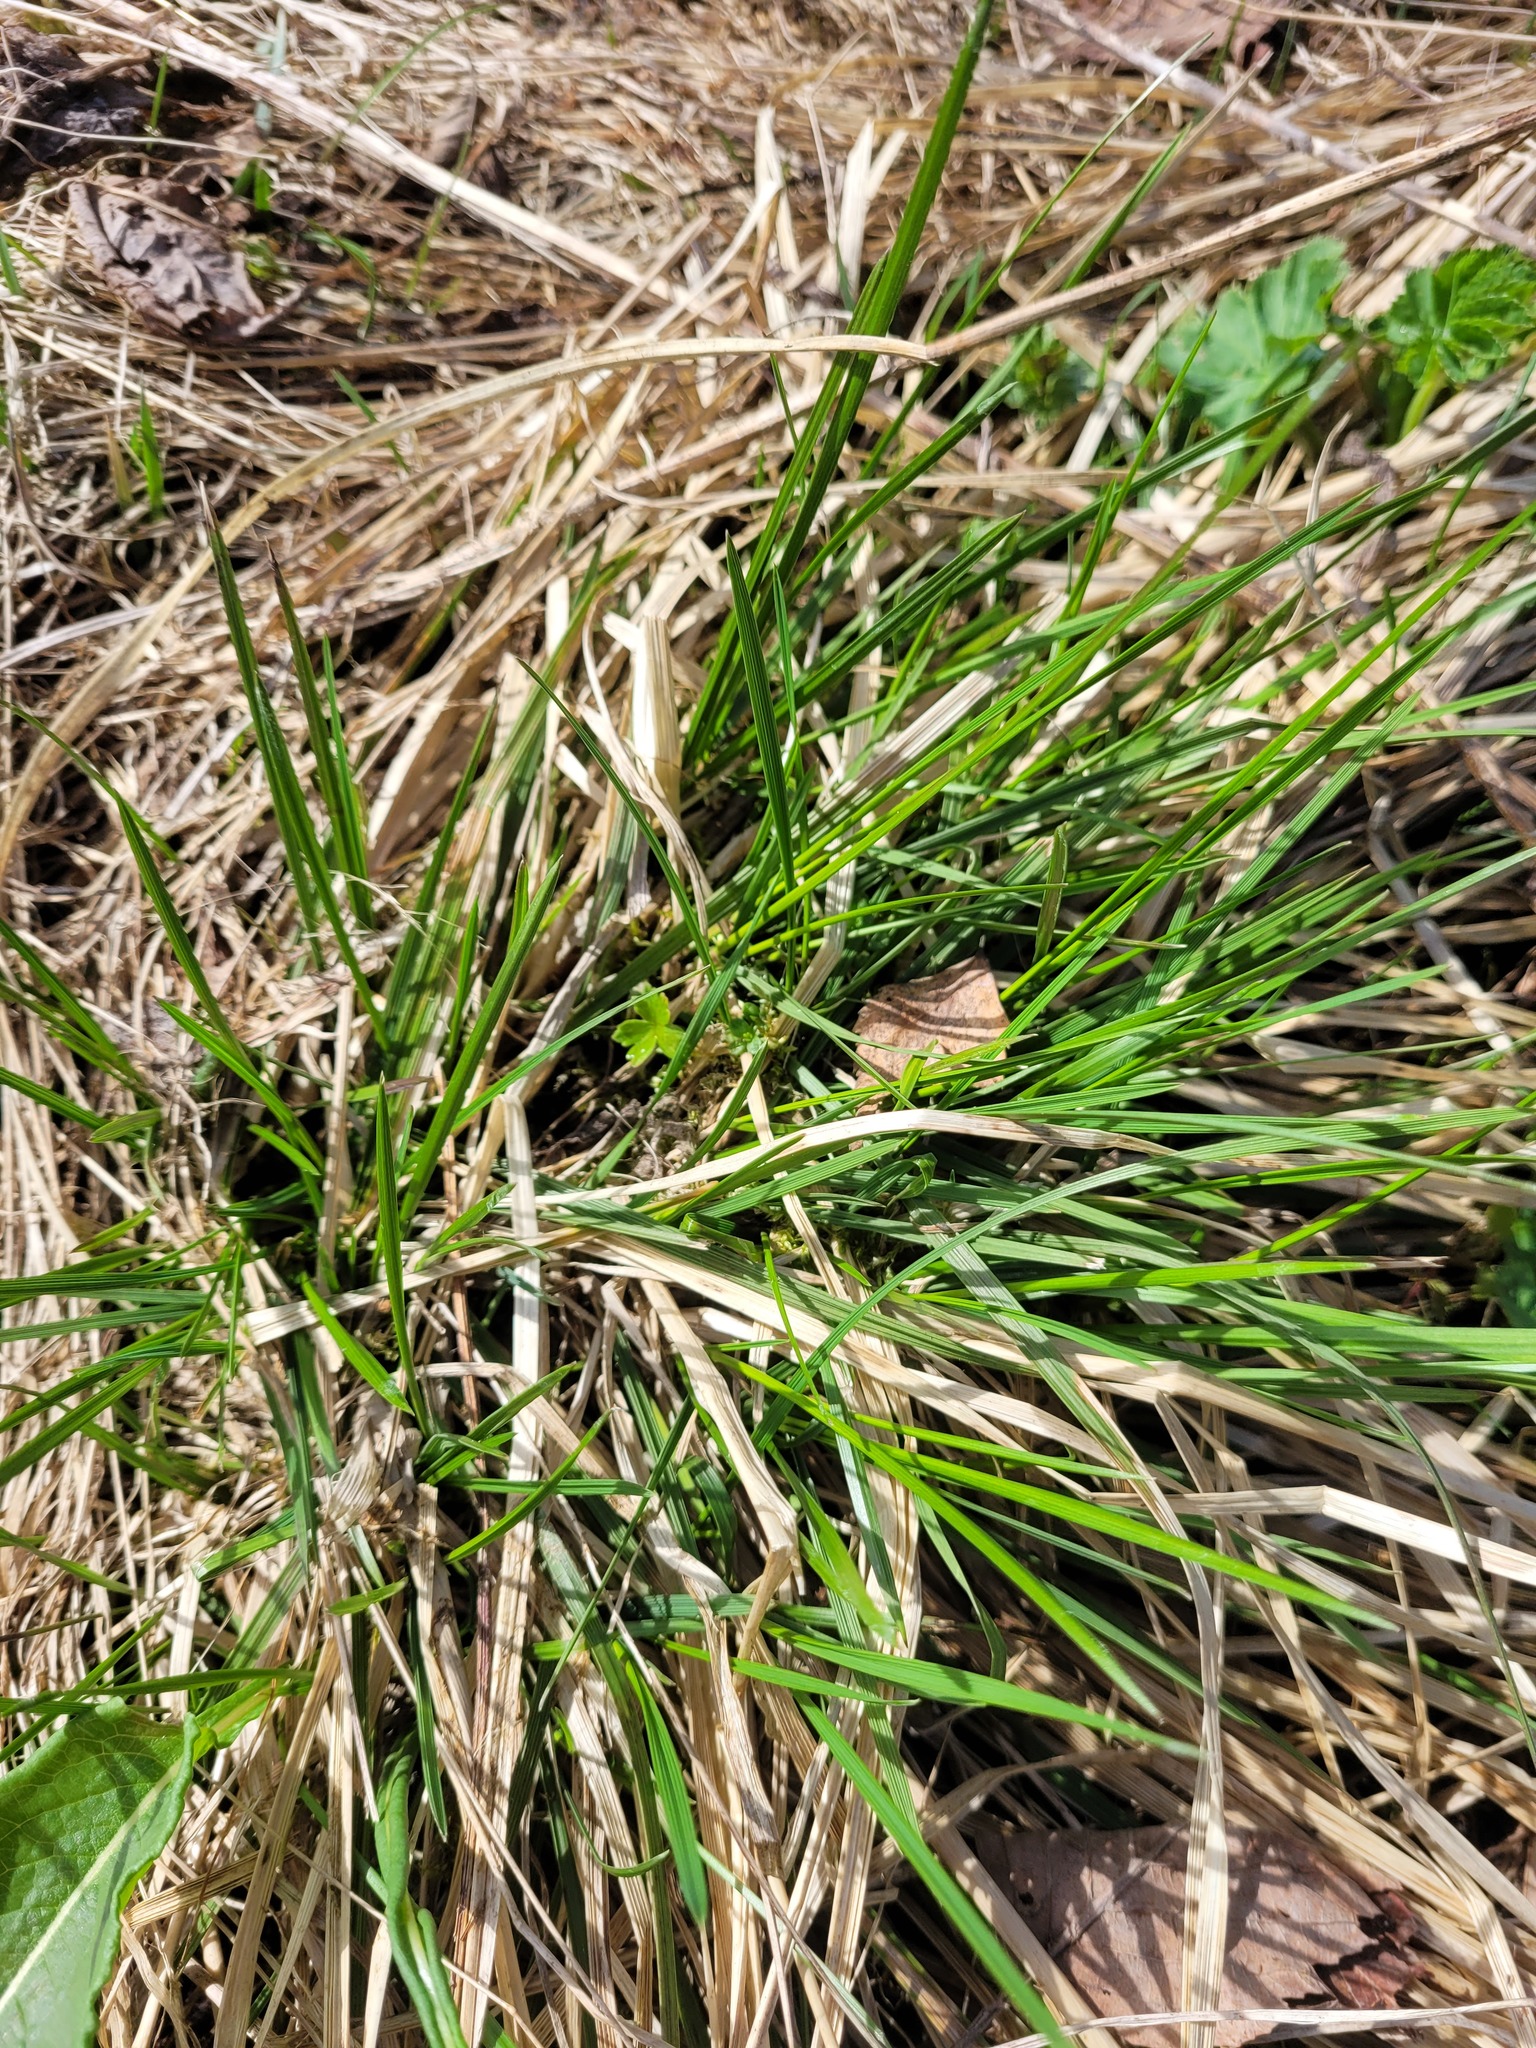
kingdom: Plantae
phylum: Tracheophyta
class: Liliopsida
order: Poales
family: Poaceae
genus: Deschampsia
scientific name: Deschampsia cespitosa
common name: Tufted hair-grass
